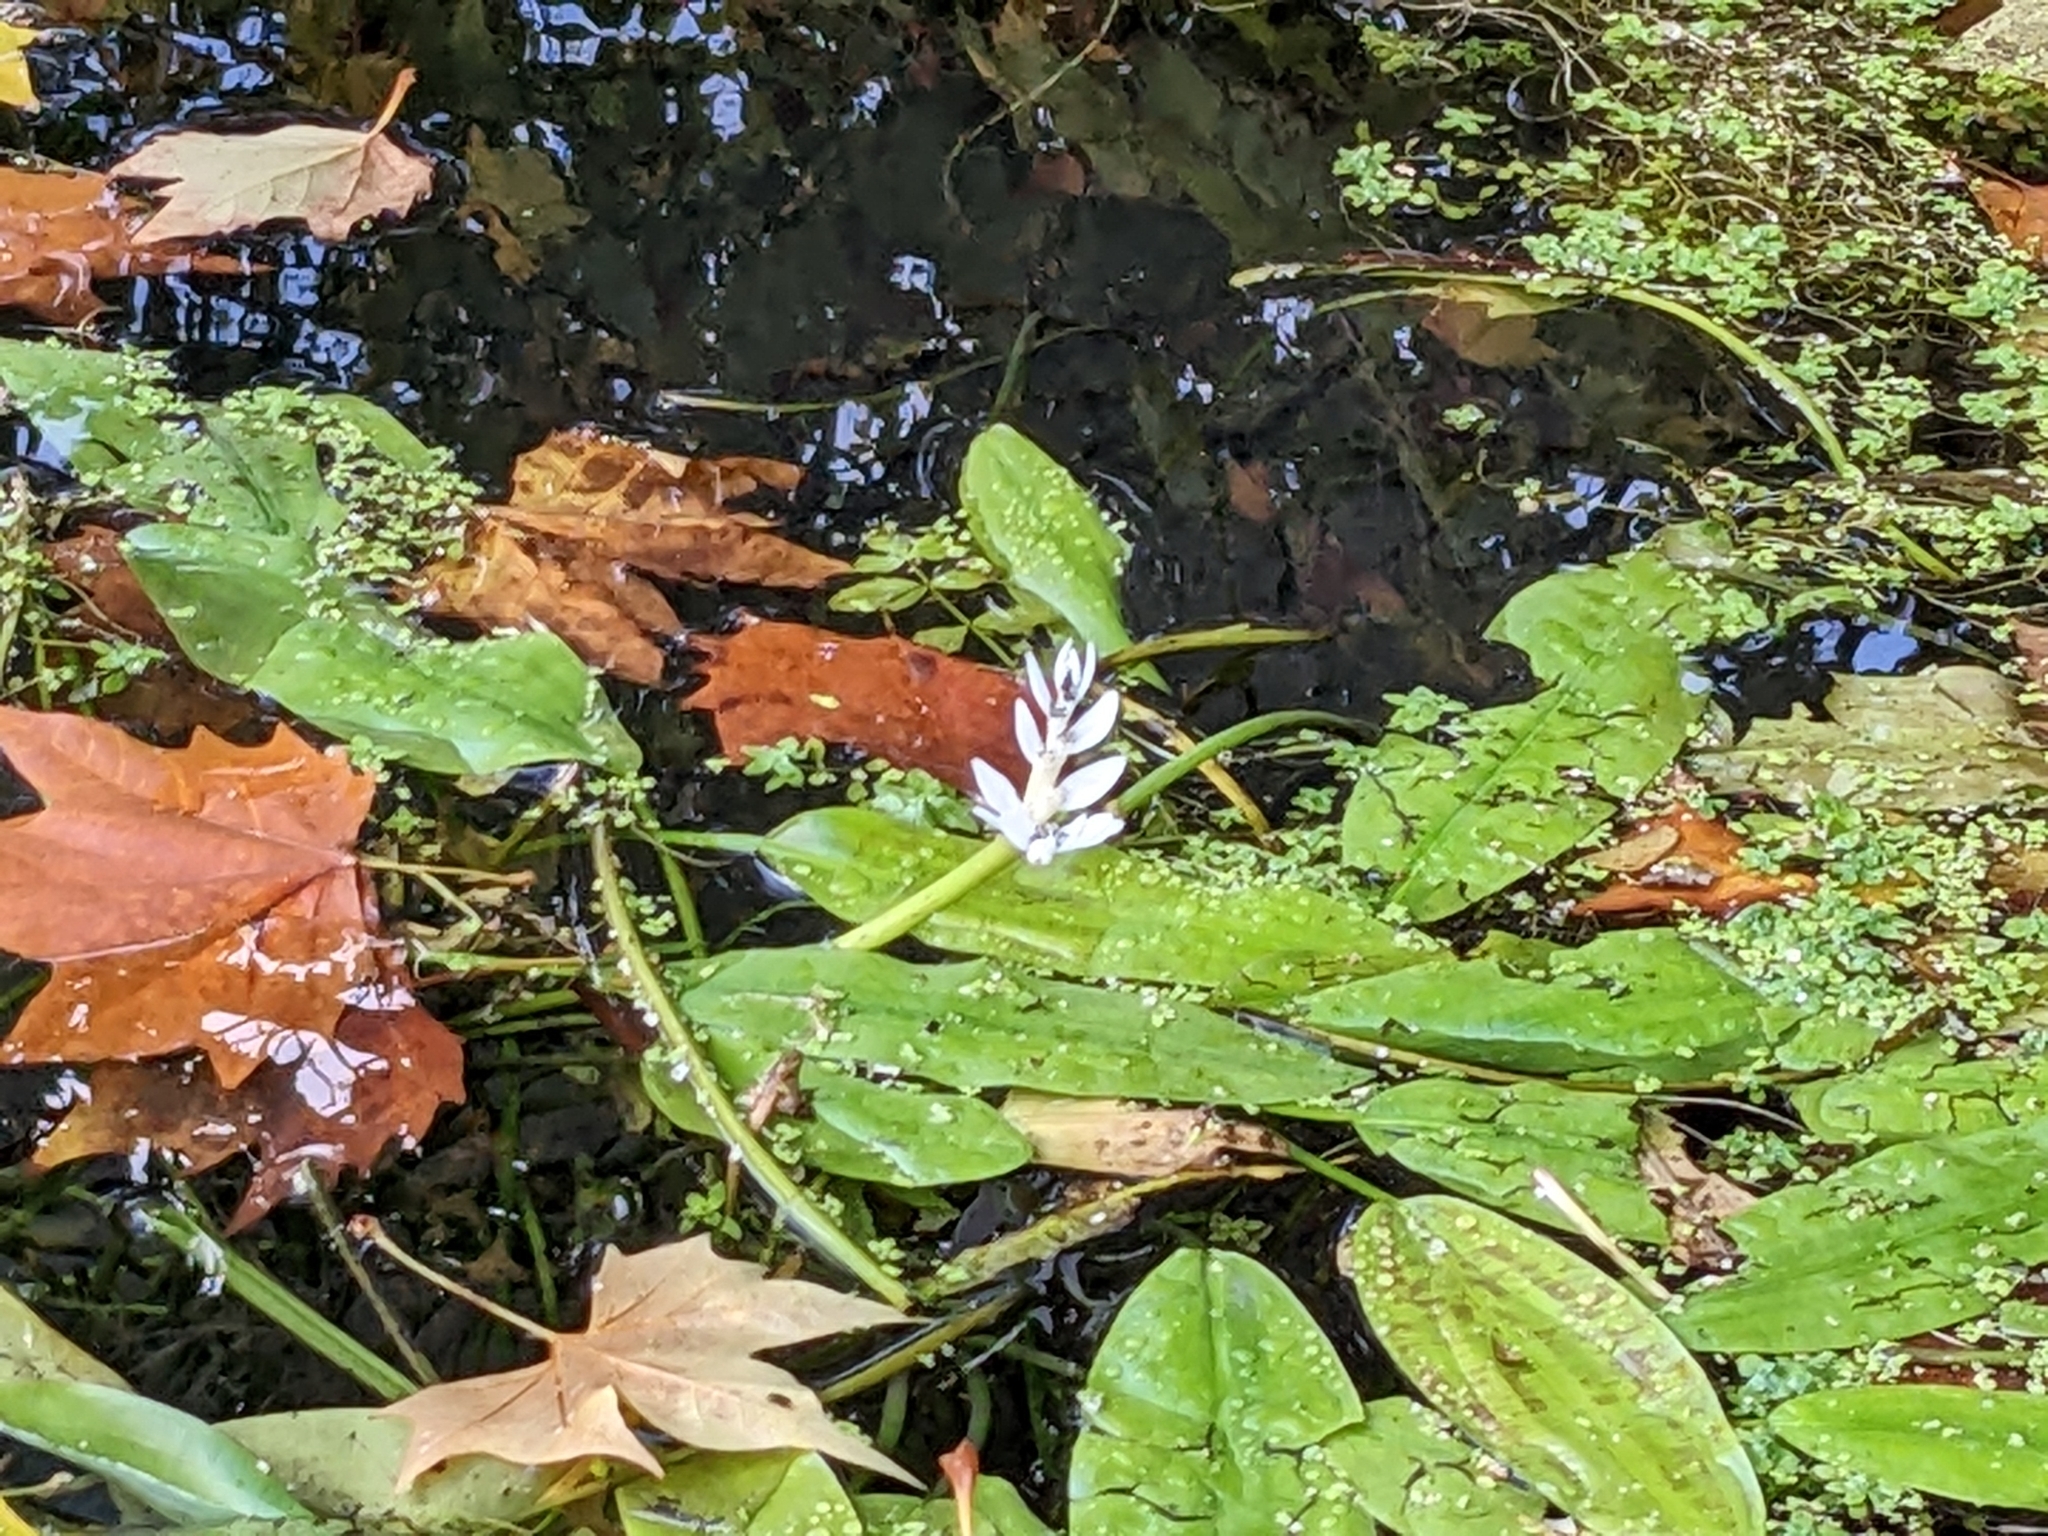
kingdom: Plantae
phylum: Tracheophyta
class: Liliopsida
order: Alismatales
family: Aponogetonaceae
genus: Aponogeton
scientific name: Aponogeton distachyos
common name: Cape-pondweed
